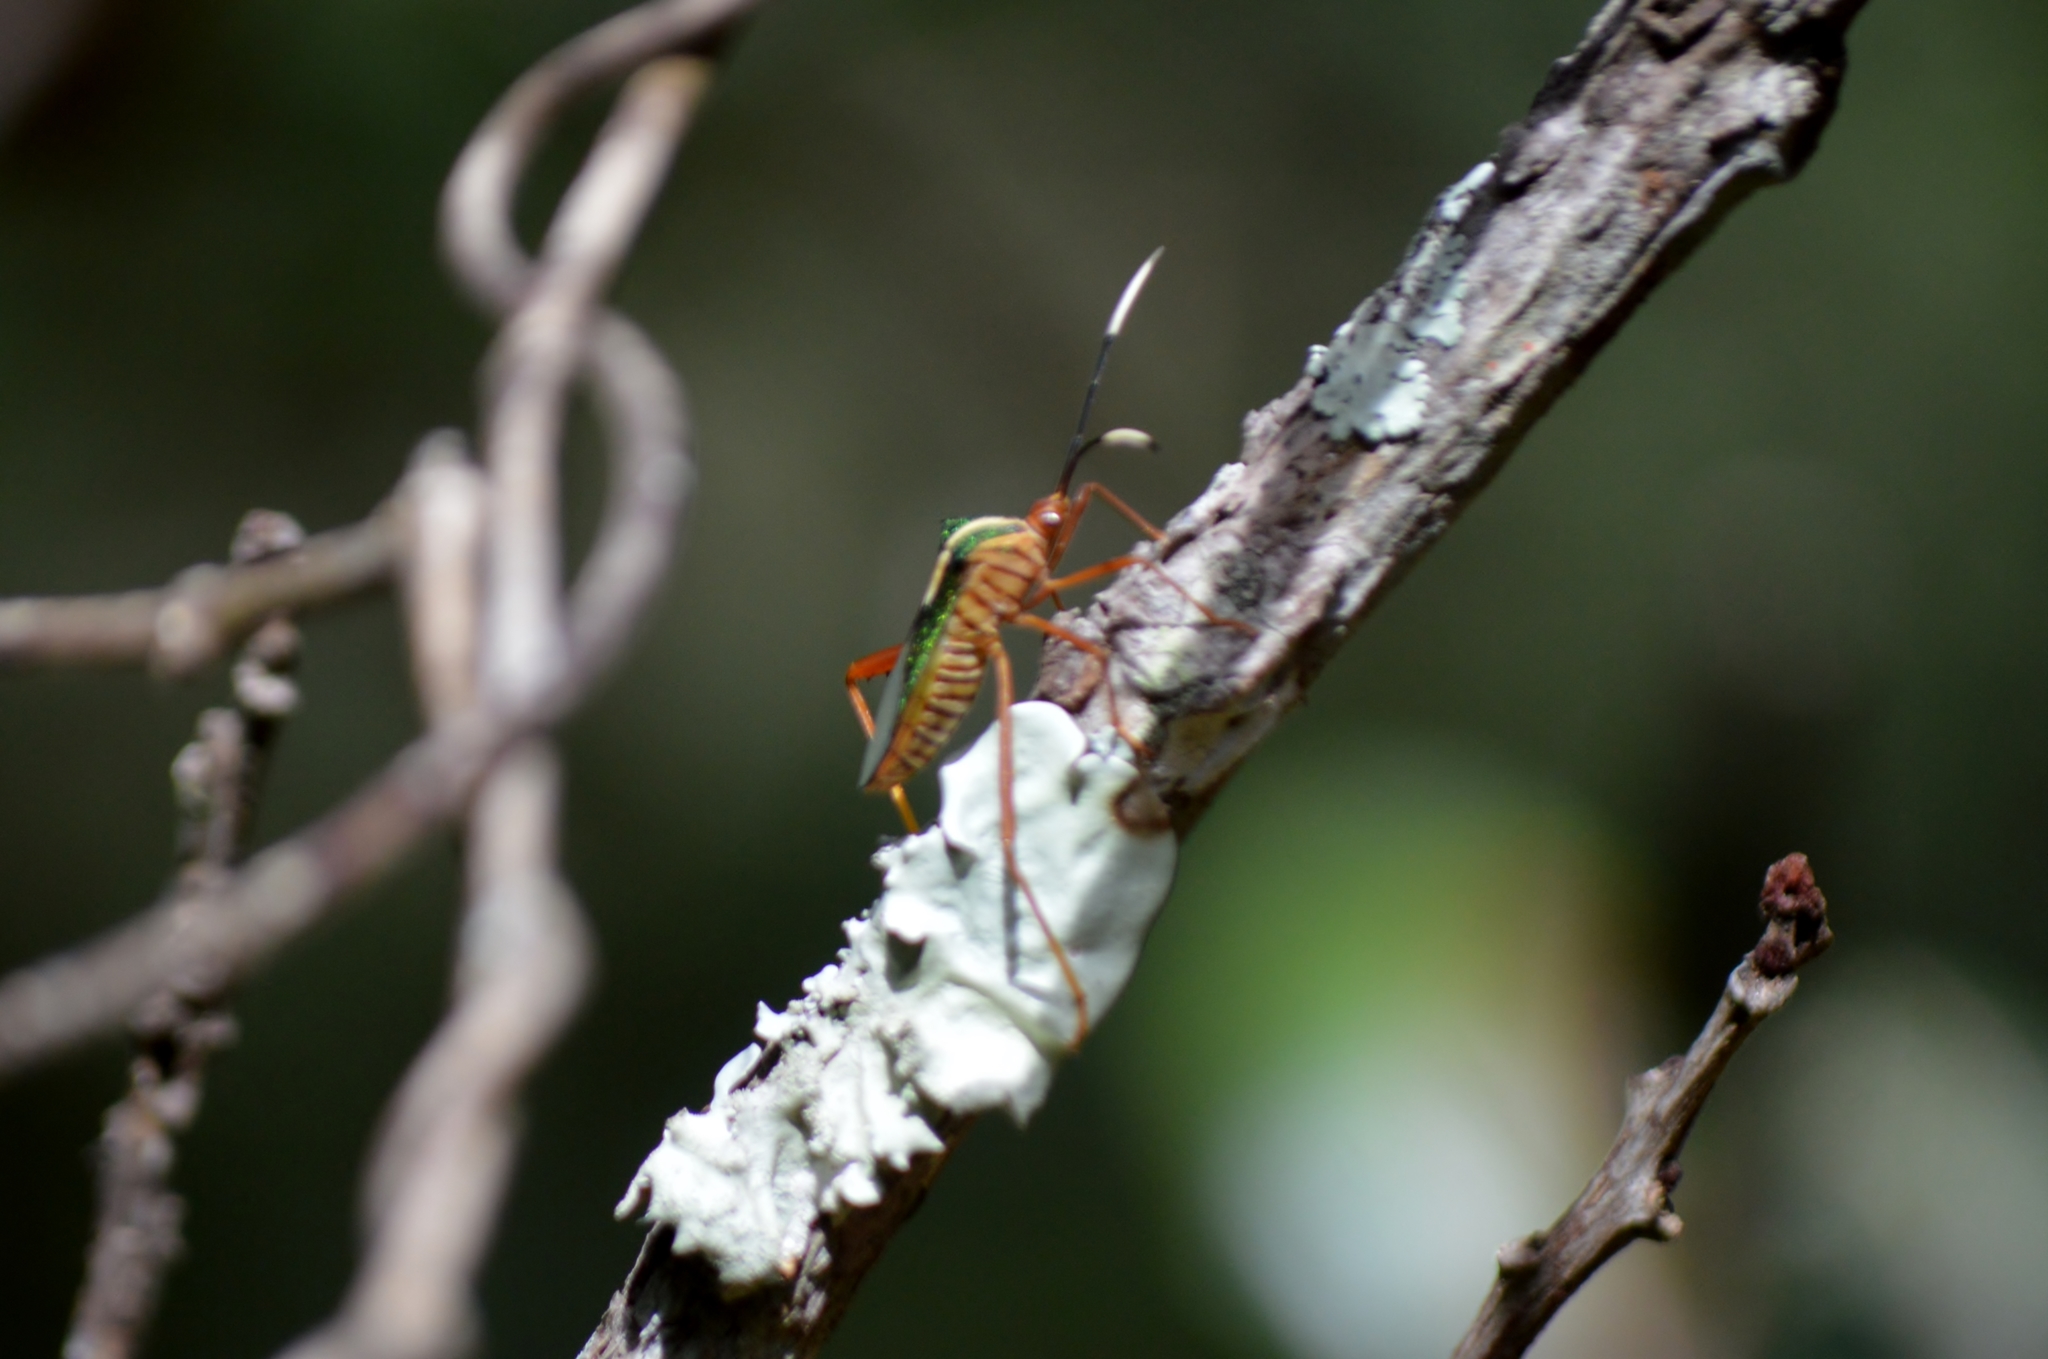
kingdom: Animalia
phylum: Arthropoda
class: Insecta
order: Hemiptera
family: Coreidae
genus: Lucullia
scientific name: Lucullia flavovittata
